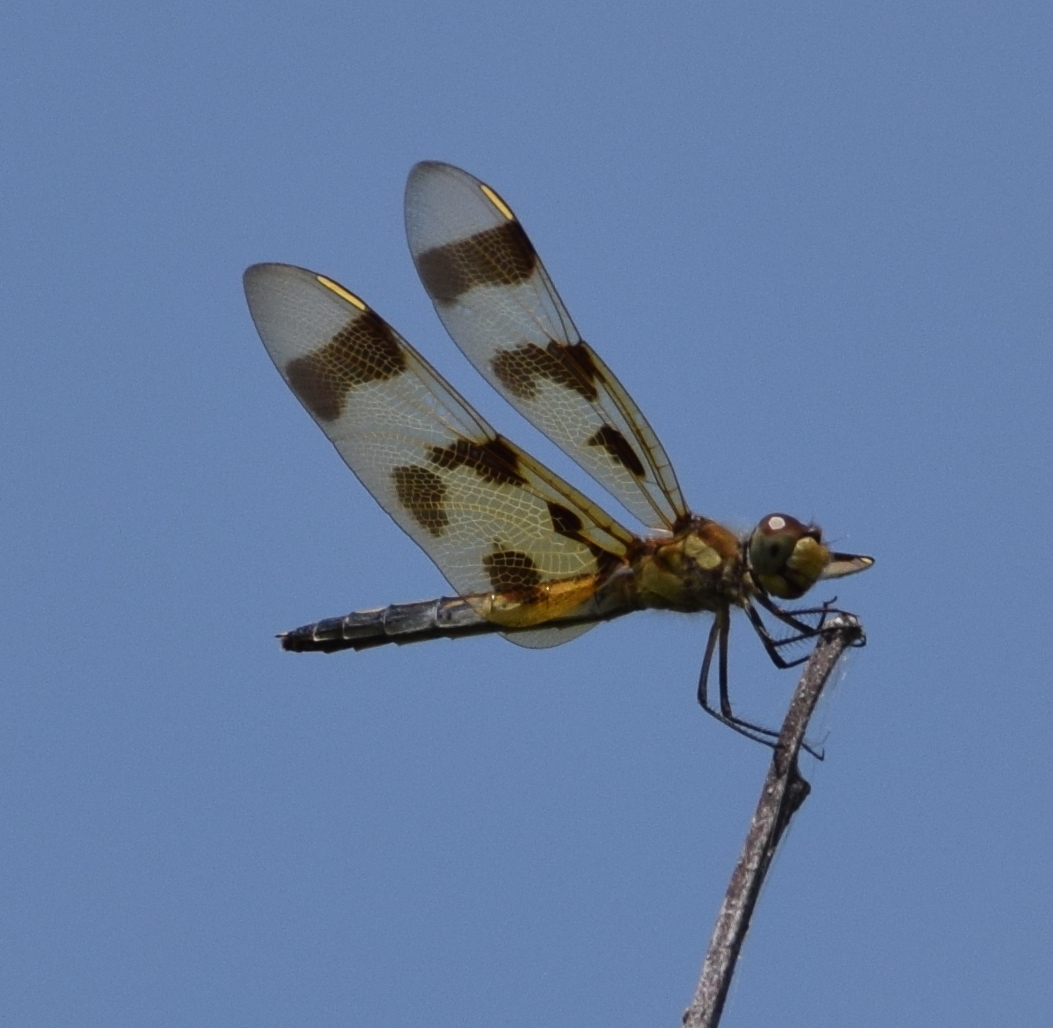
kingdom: Animalia
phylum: Arthropoda
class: Insecta
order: Odonata
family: Libellulidae
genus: Celithemis
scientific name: Celithemis eponina
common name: Halloween pennant
